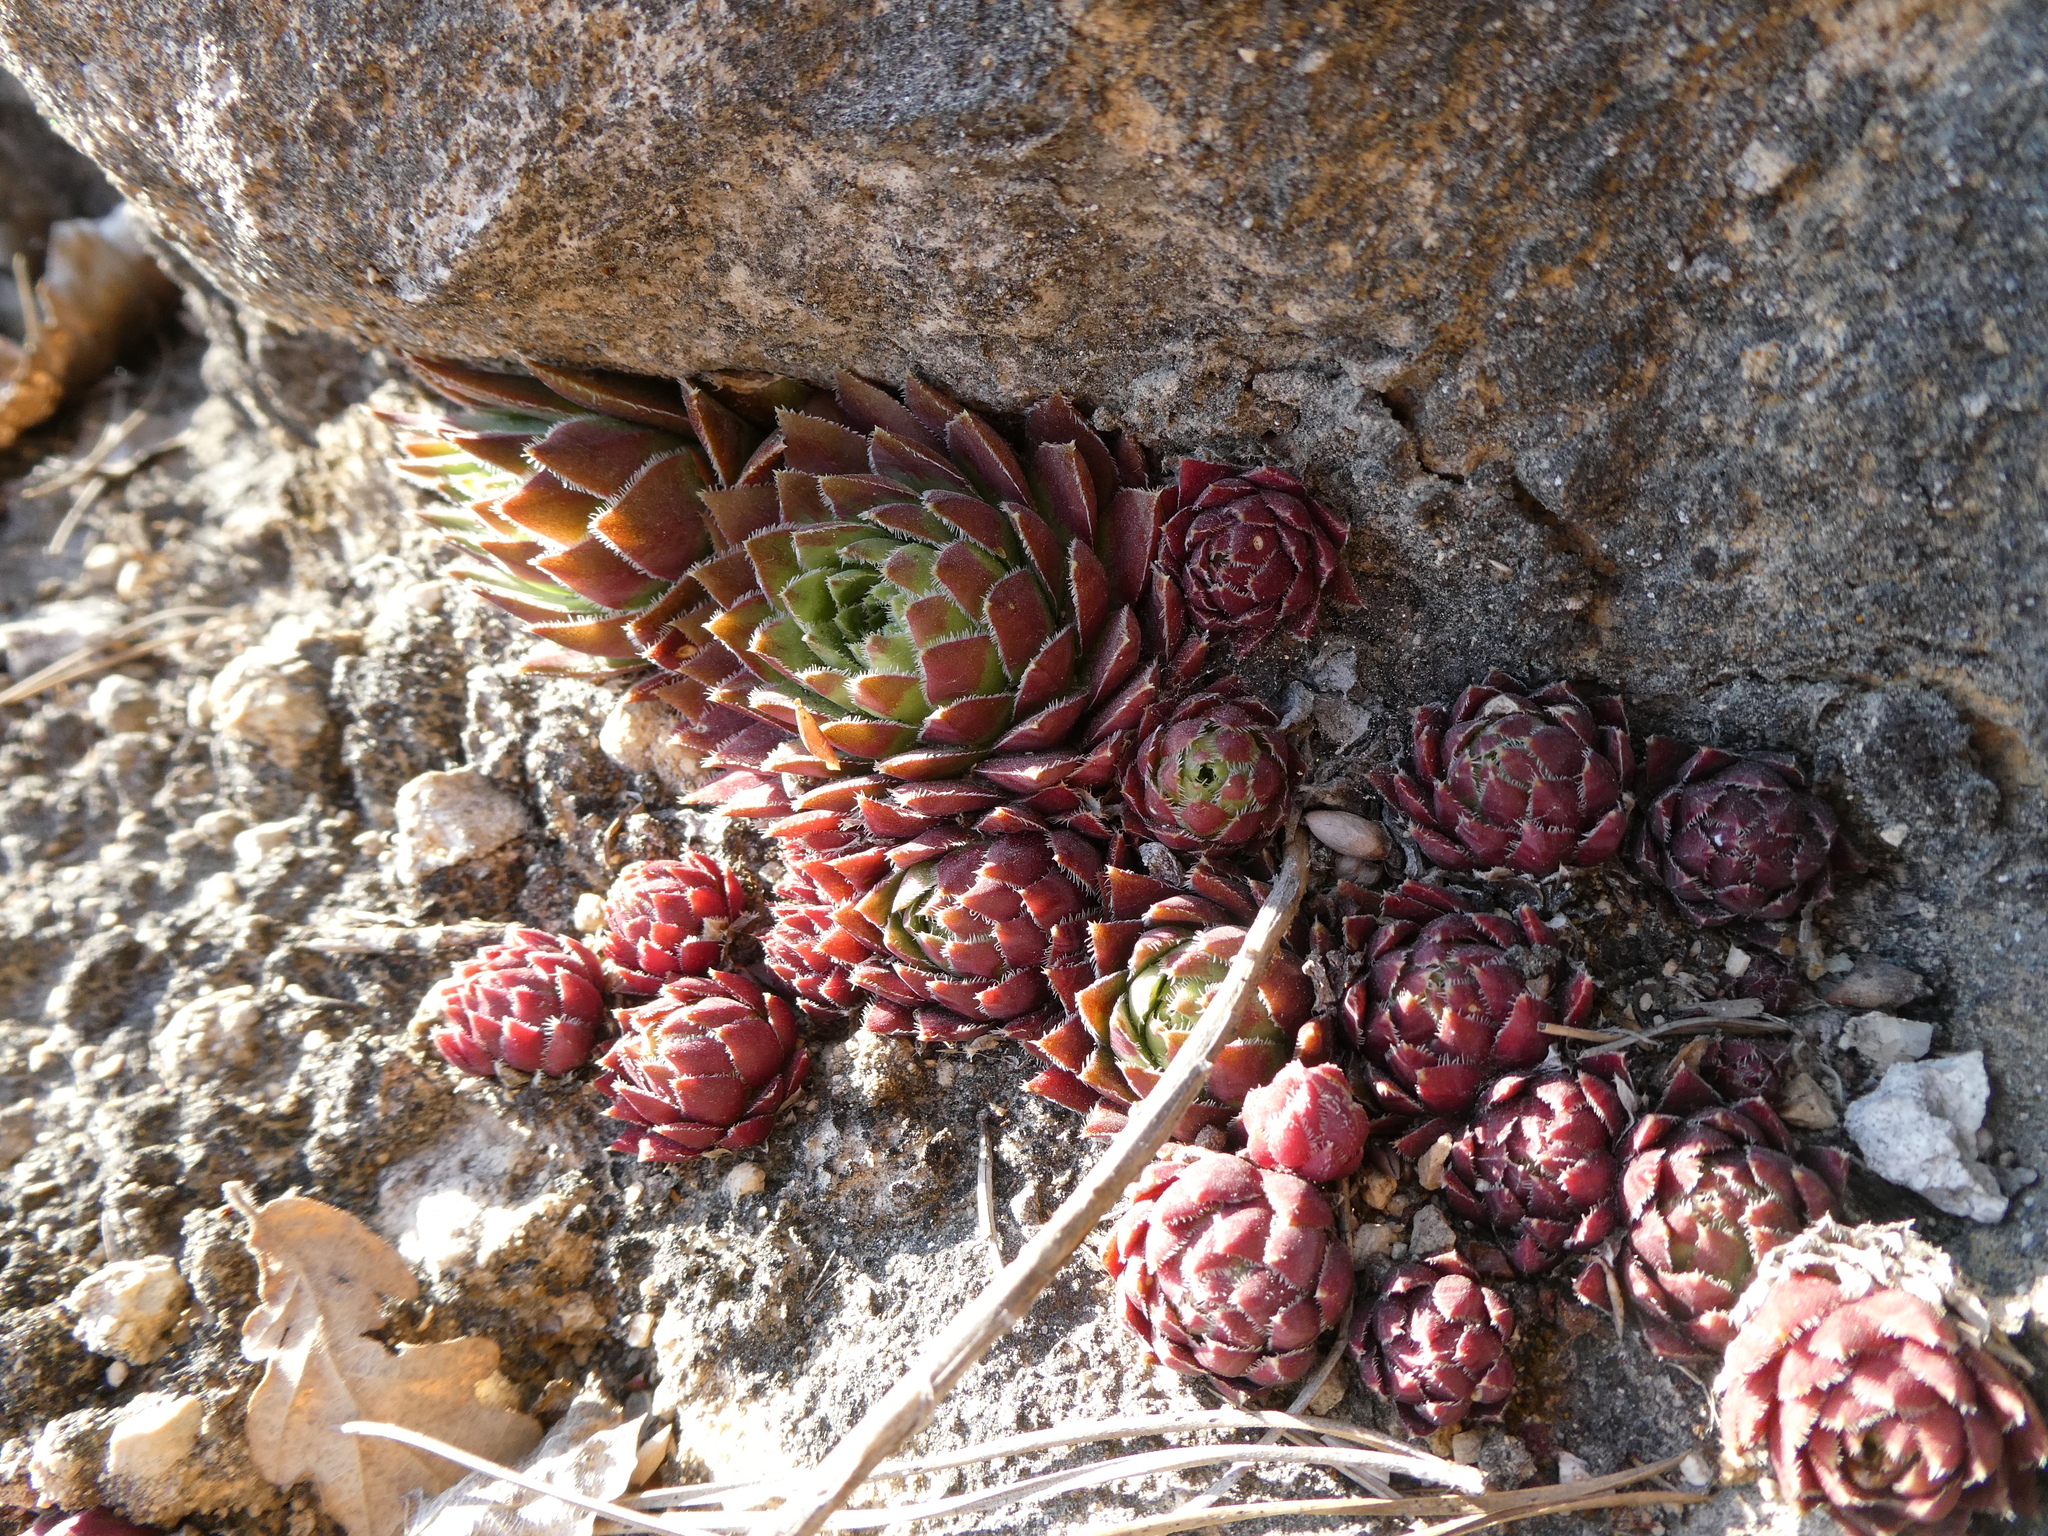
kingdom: Plantae
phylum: Tracheophyta
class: Magnoliopsida
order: Saxifragales
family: Crassulaceae
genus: Sempervivum
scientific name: Sempervivum globiferum
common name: Rolling hen-and-chicks
